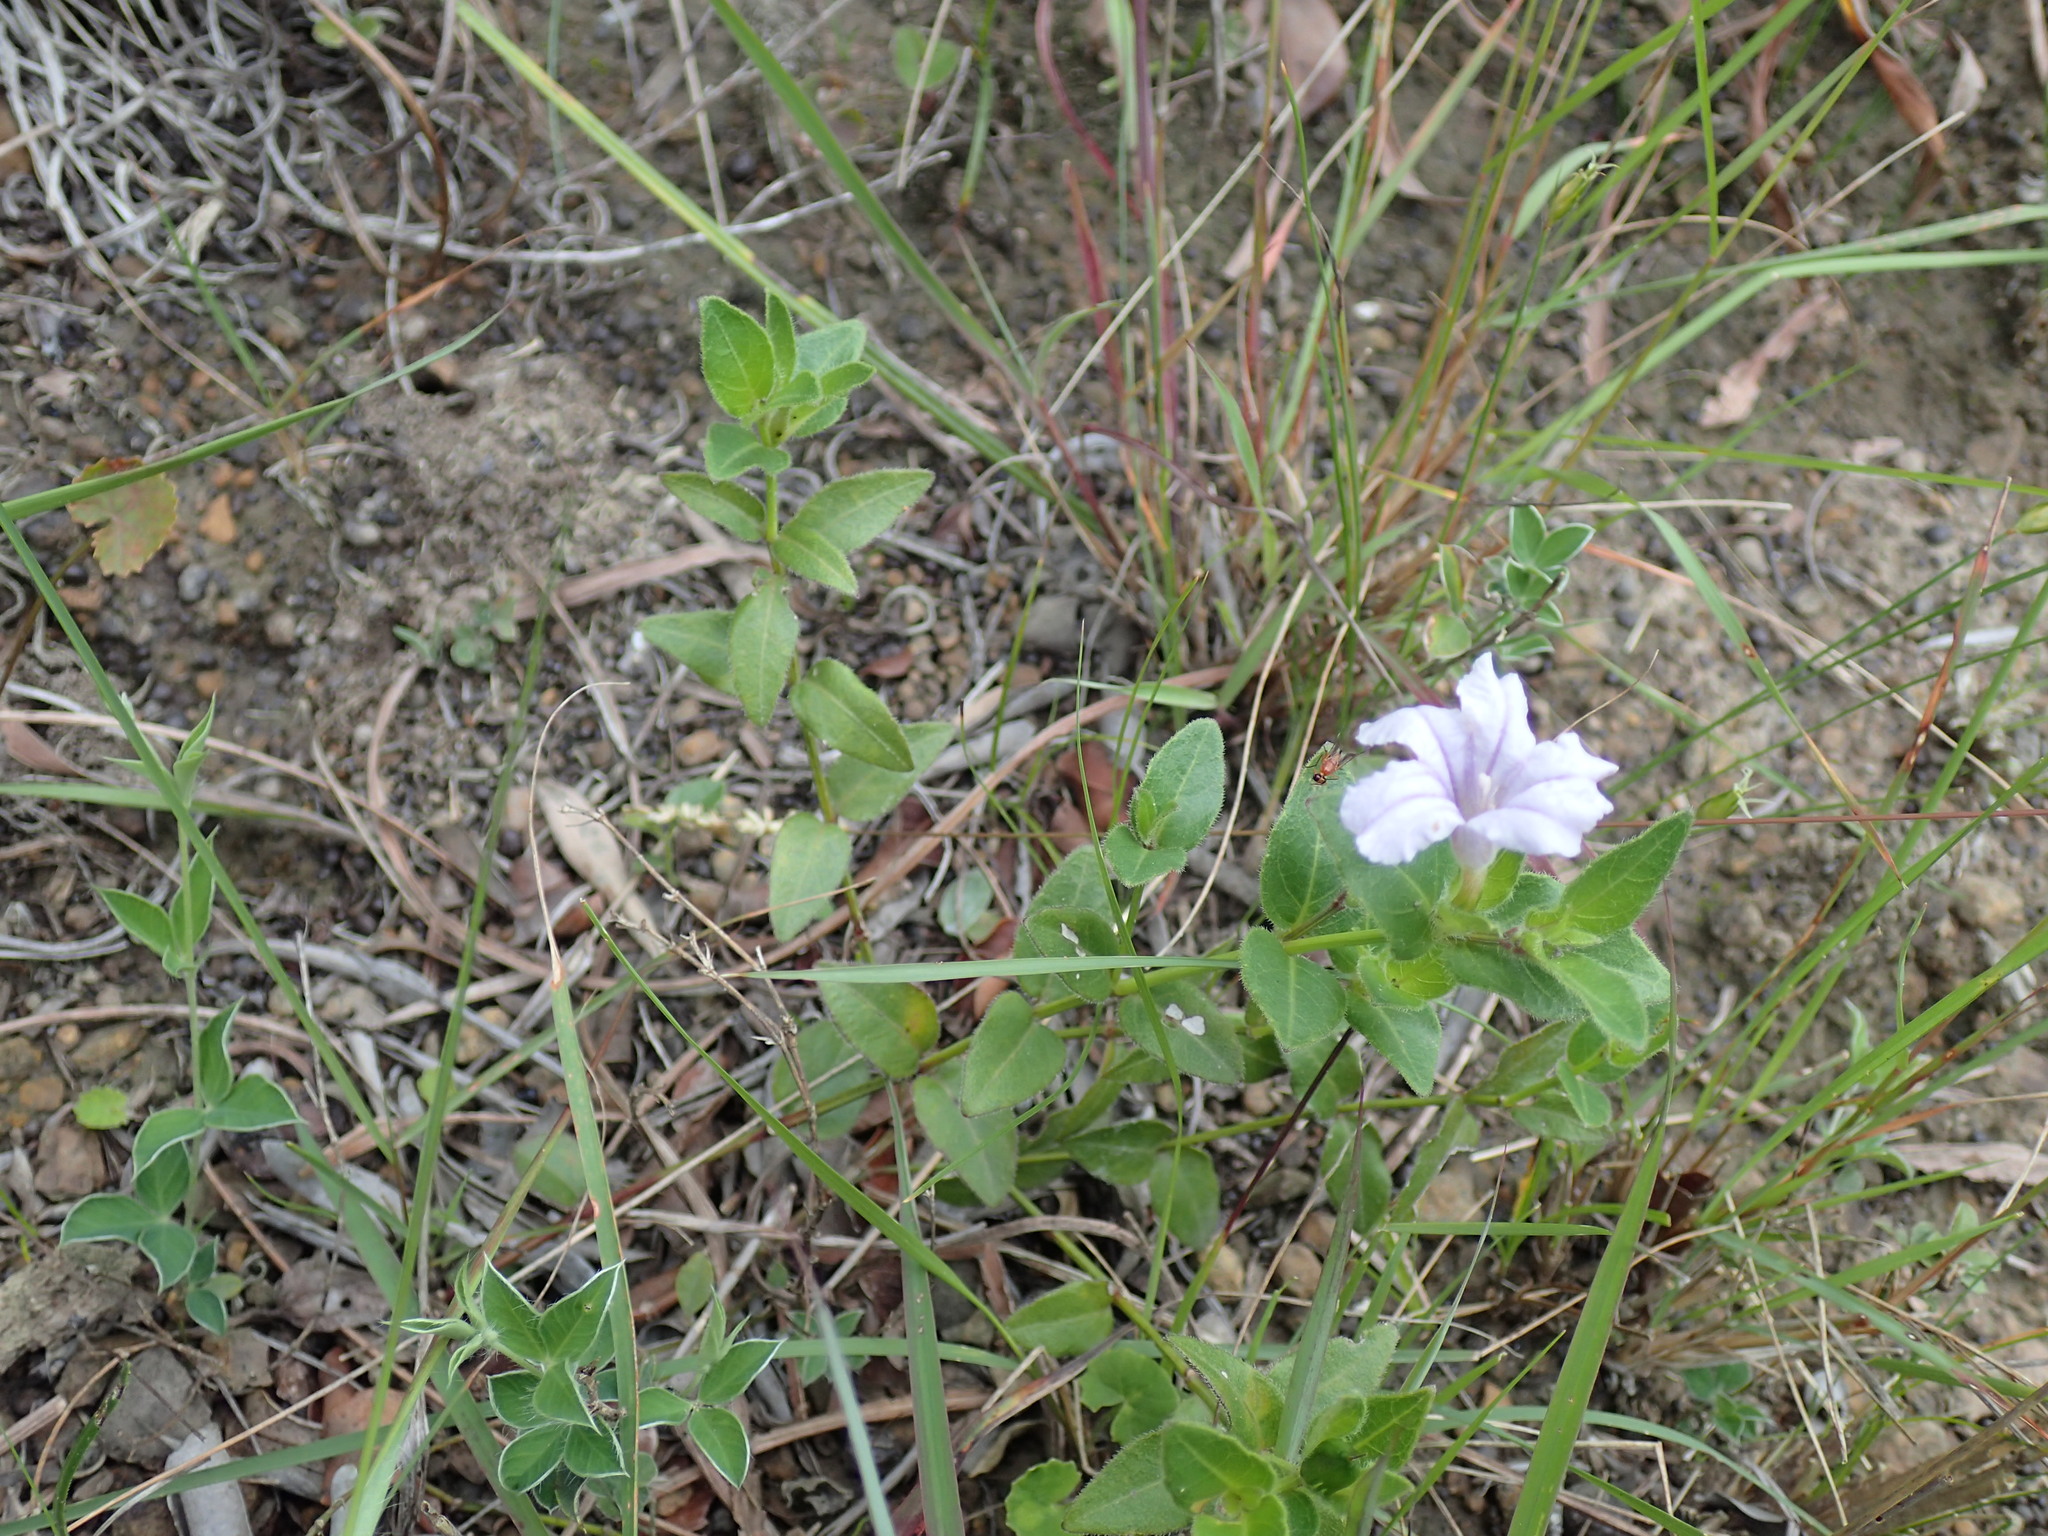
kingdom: Plantae
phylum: Tracheophyta
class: Magnoliopsida
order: Lamiales
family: Acanthaceae
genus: Ruellia
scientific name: Ruellia cordata
